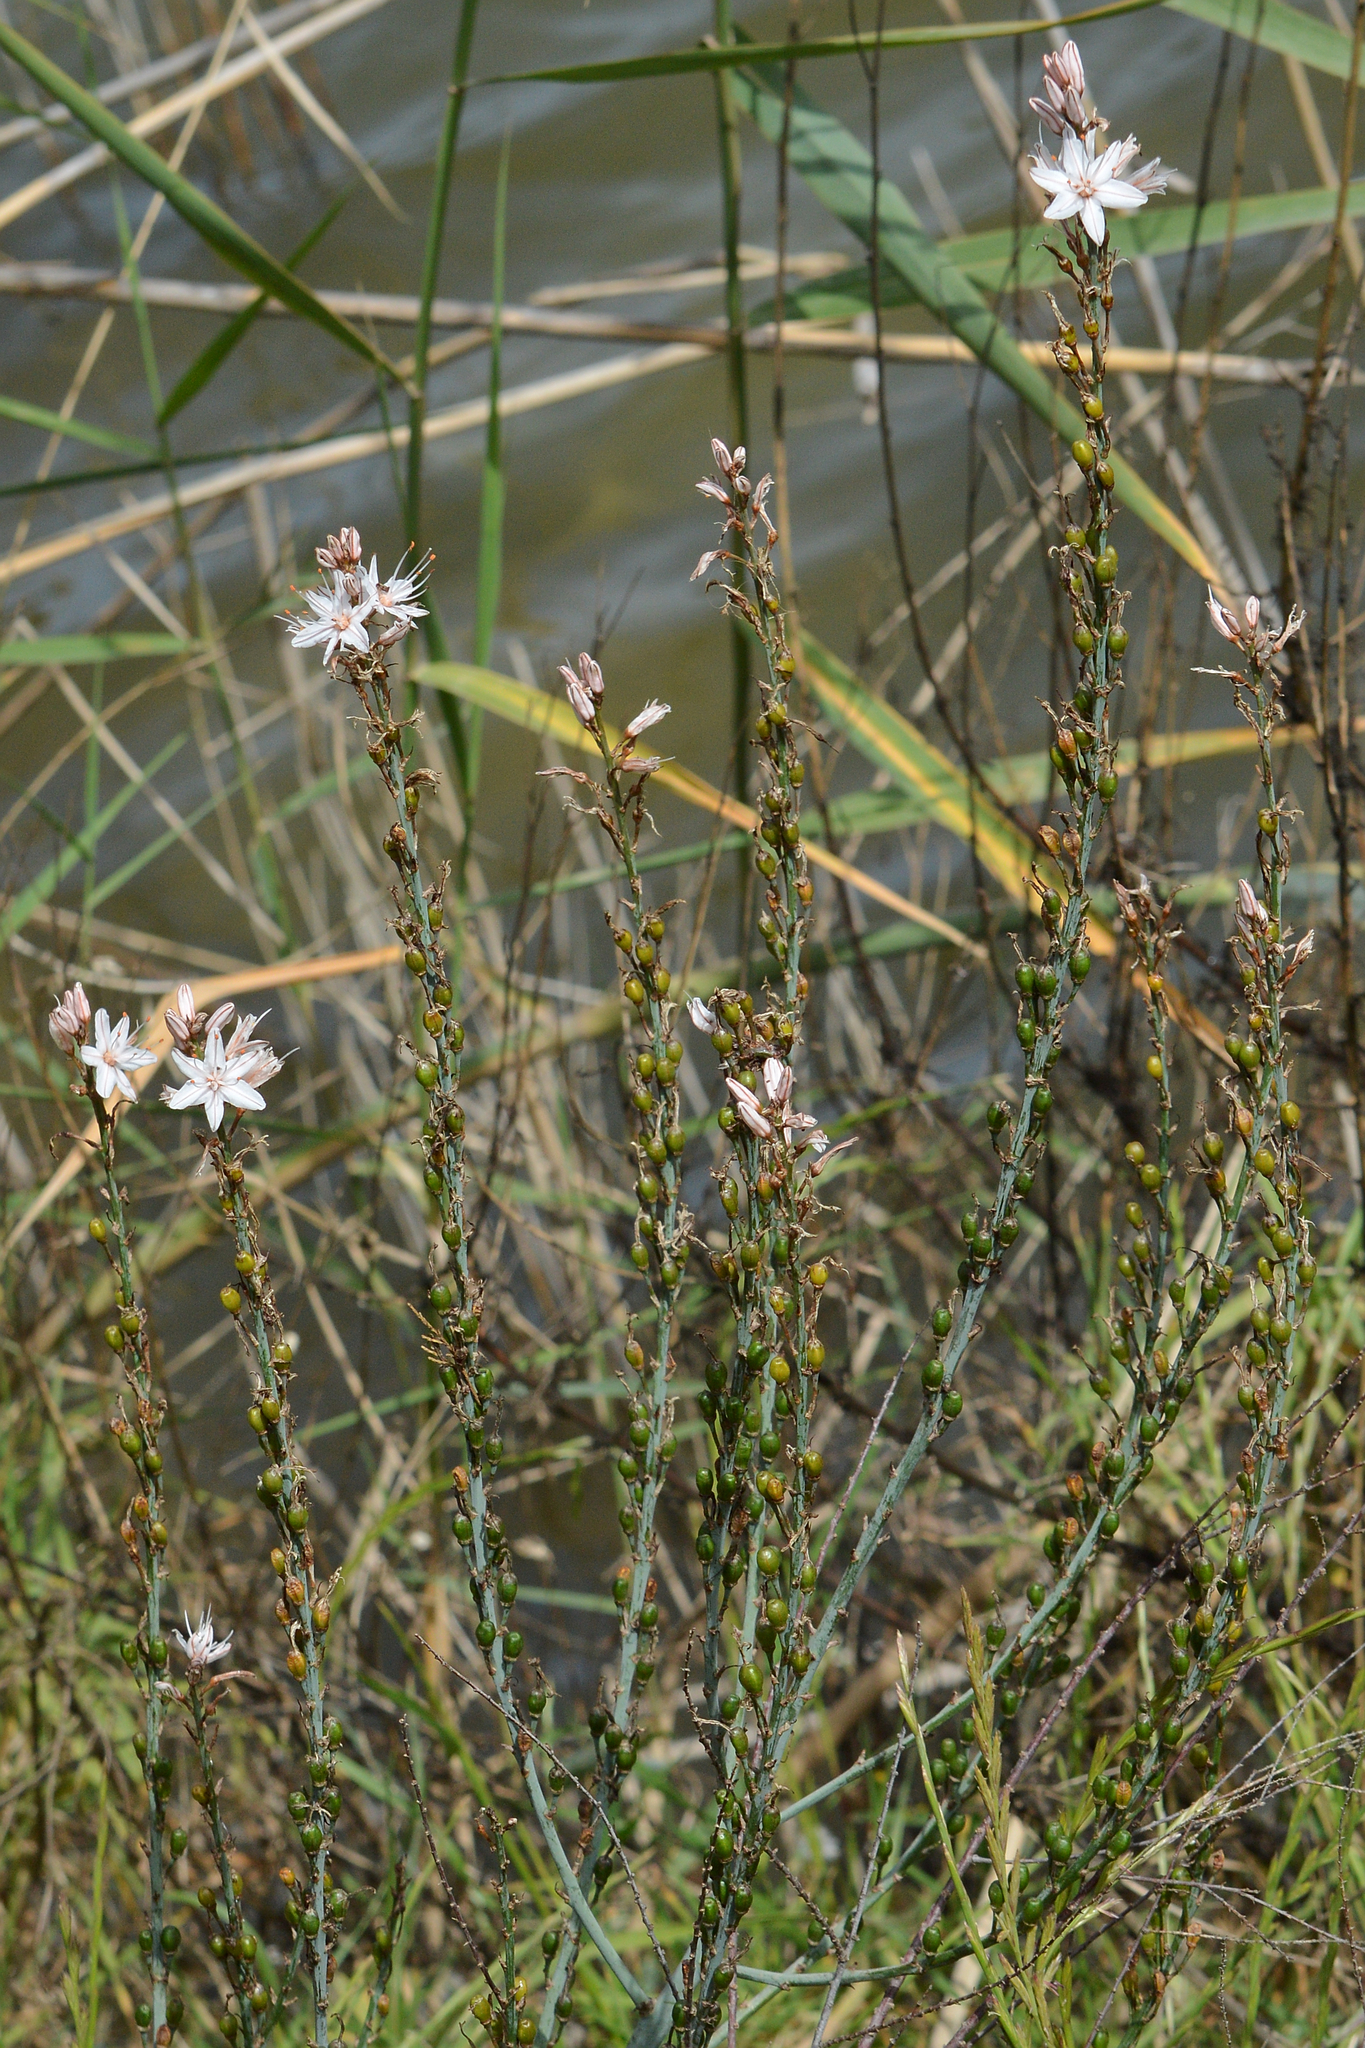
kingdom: Plantae
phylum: Tracheophyta
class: Liliopsida
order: Asparagales
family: Asphodelaceae
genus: Asphodelus
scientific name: Asphodelus ramosus
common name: Silverrod
